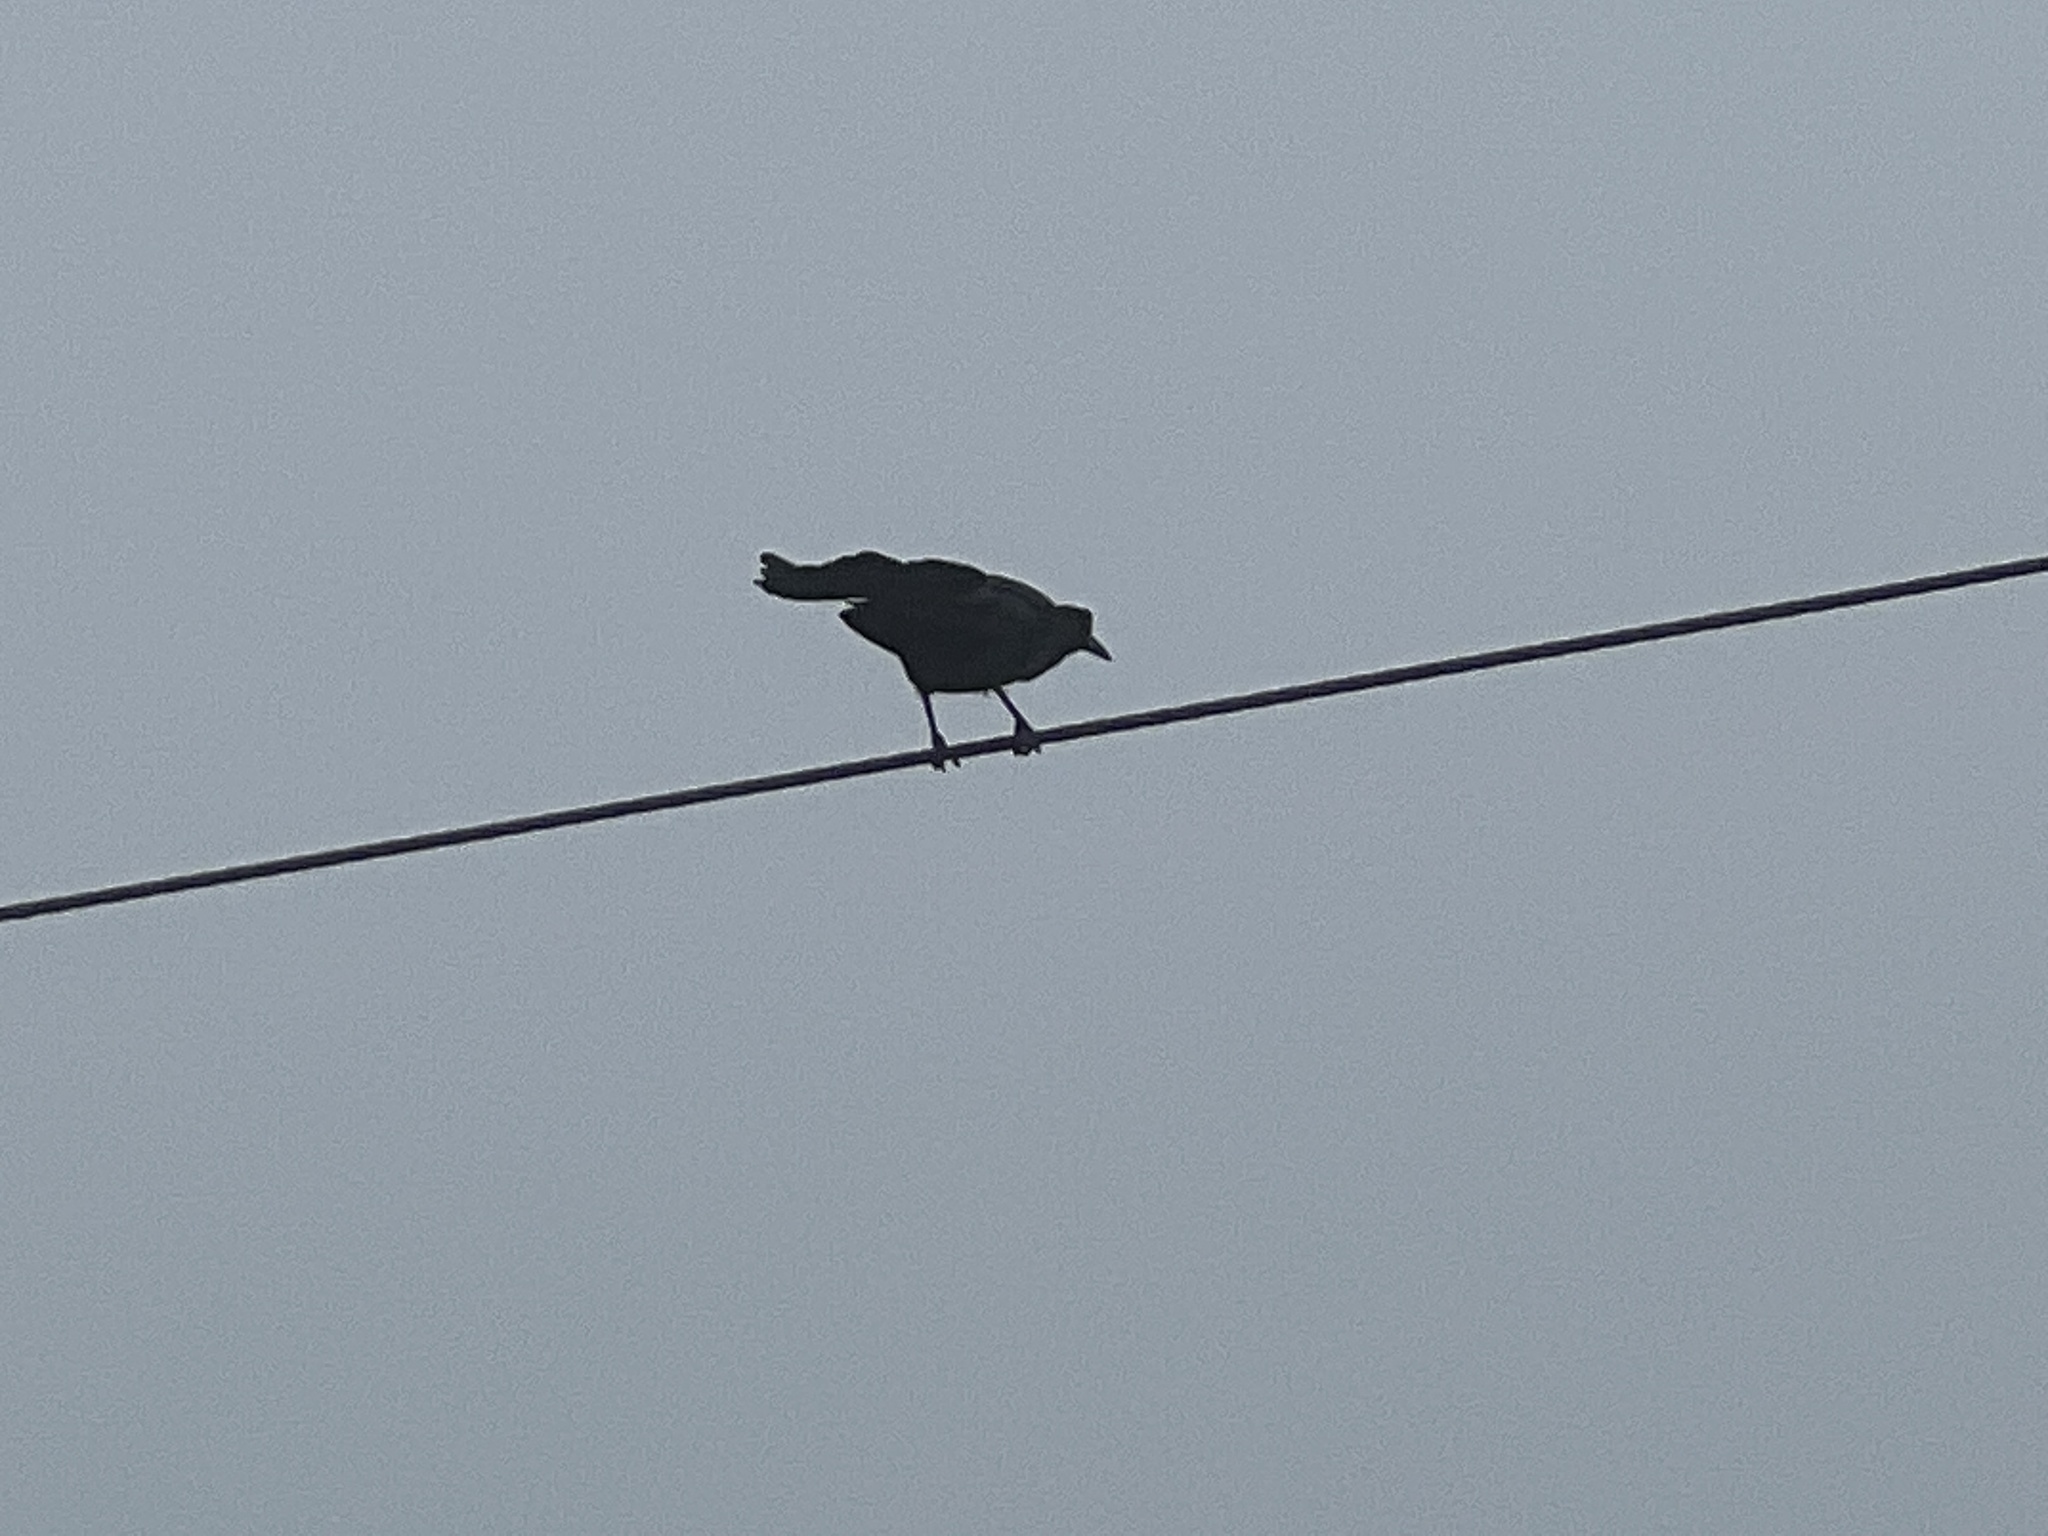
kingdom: Animalia
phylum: Chordata
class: Aves
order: Passeriformes
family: Icteridae
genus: Quiscalus
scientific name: Quiscalus mexicanus
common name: Great-tailed grackle
